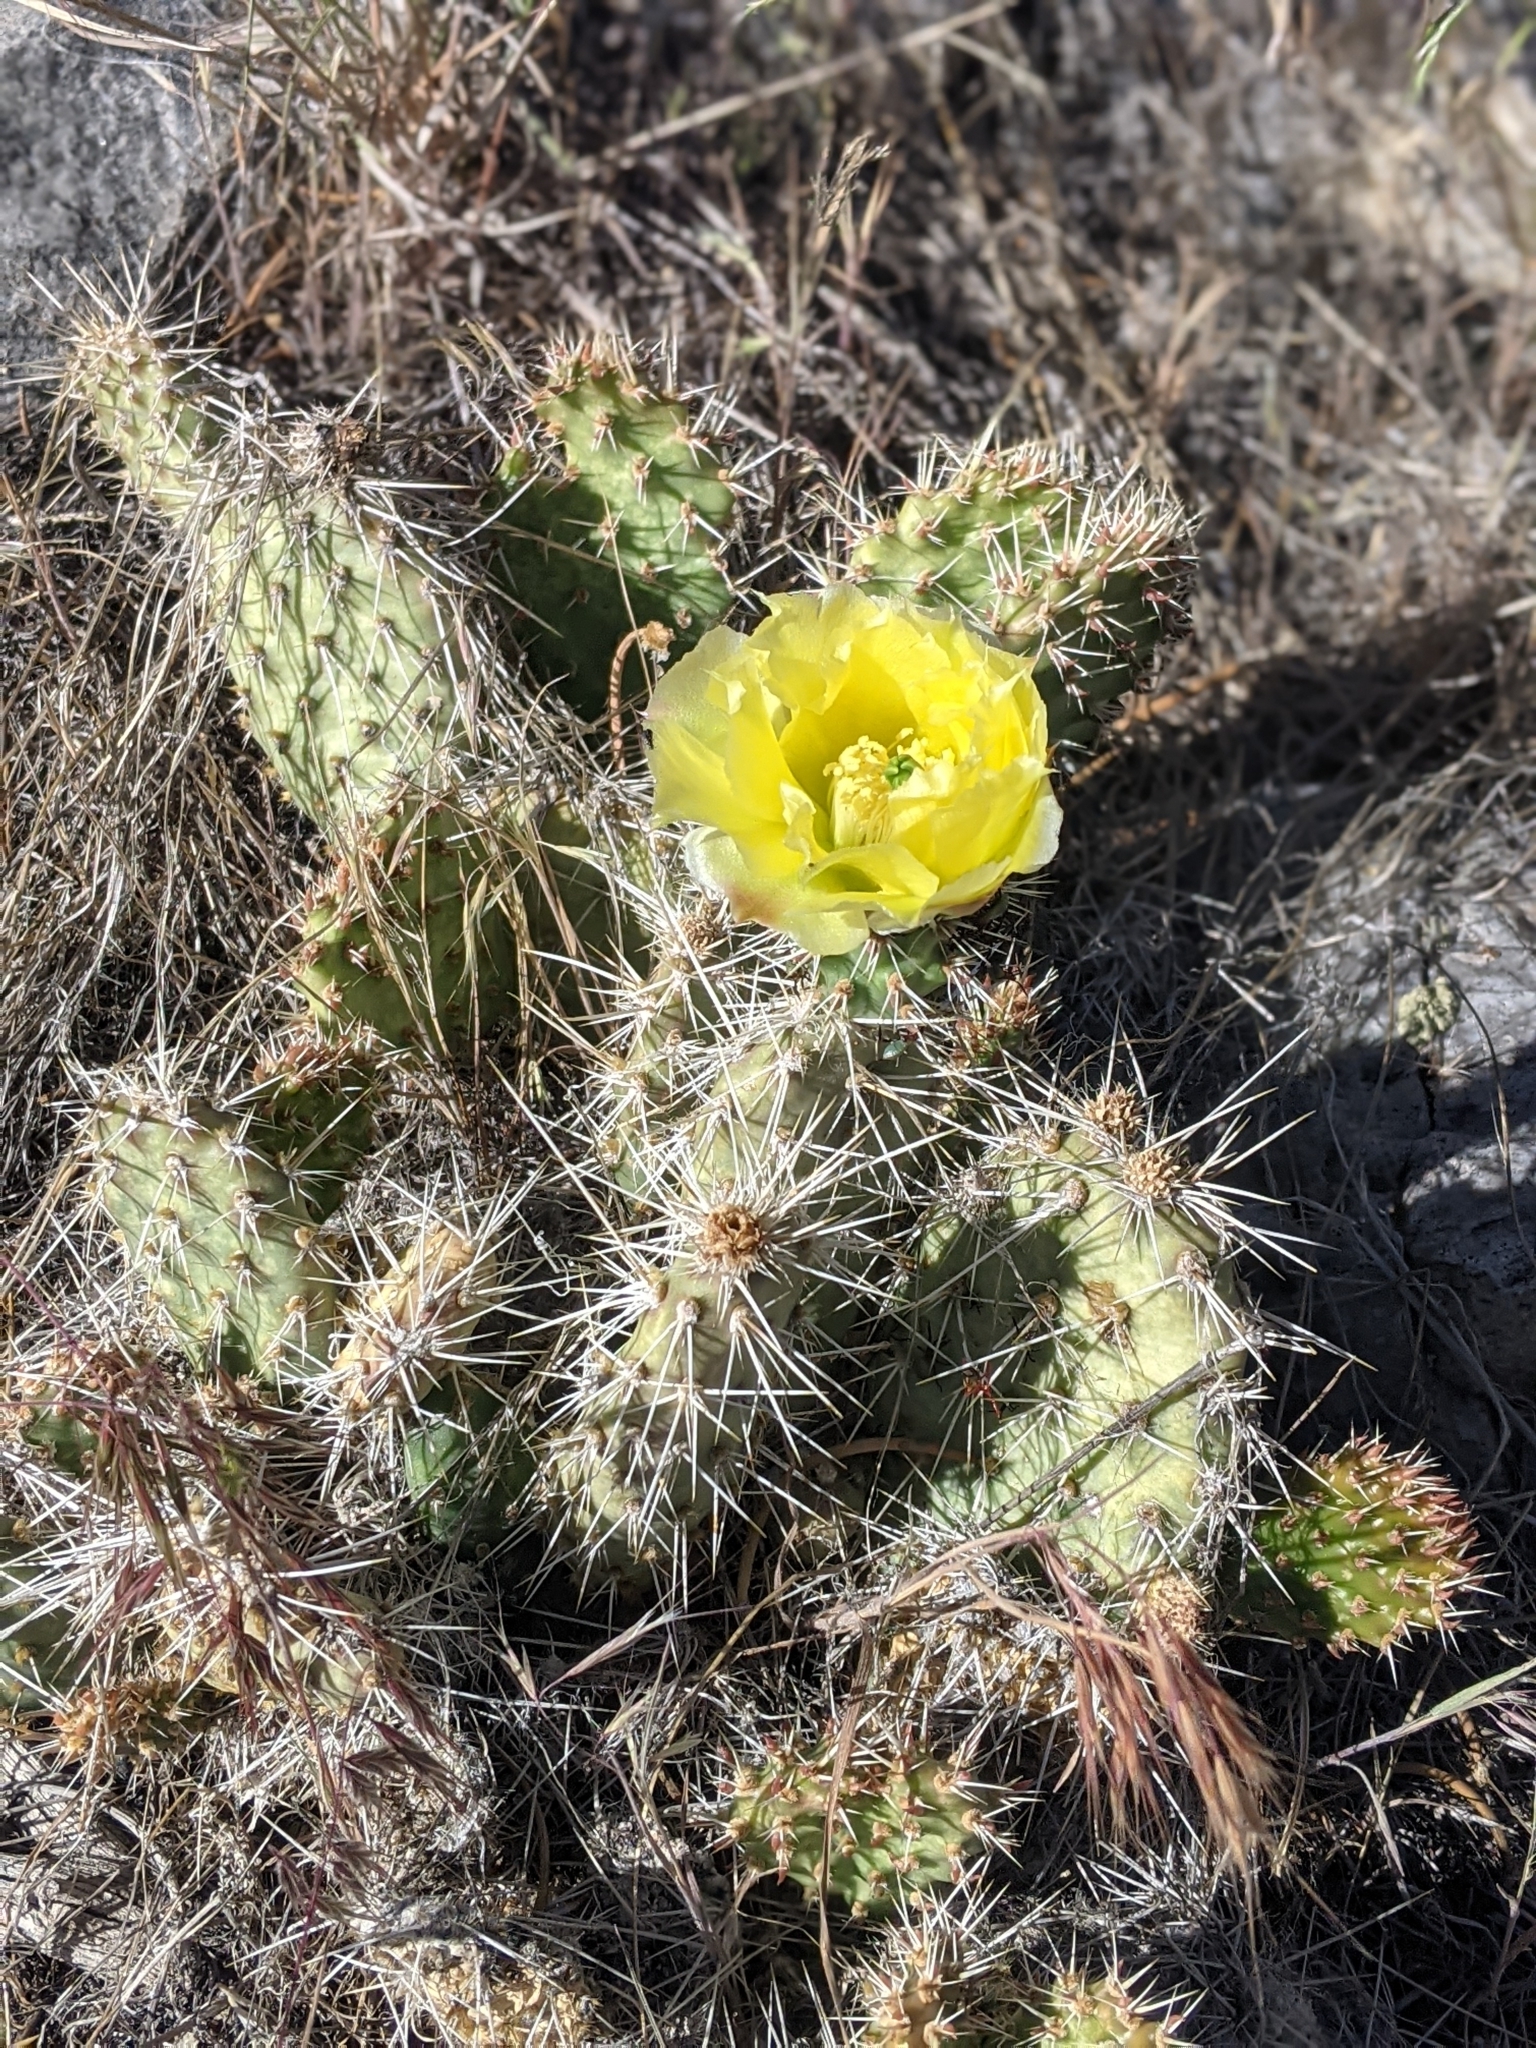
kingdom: Plantae
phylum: Tracheophyta
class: Magnoliopsida
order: Caryophyllales
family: Cactaceae
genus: Opuntia
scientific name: Opuntia polyacantha
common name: Plains prickly-pear
